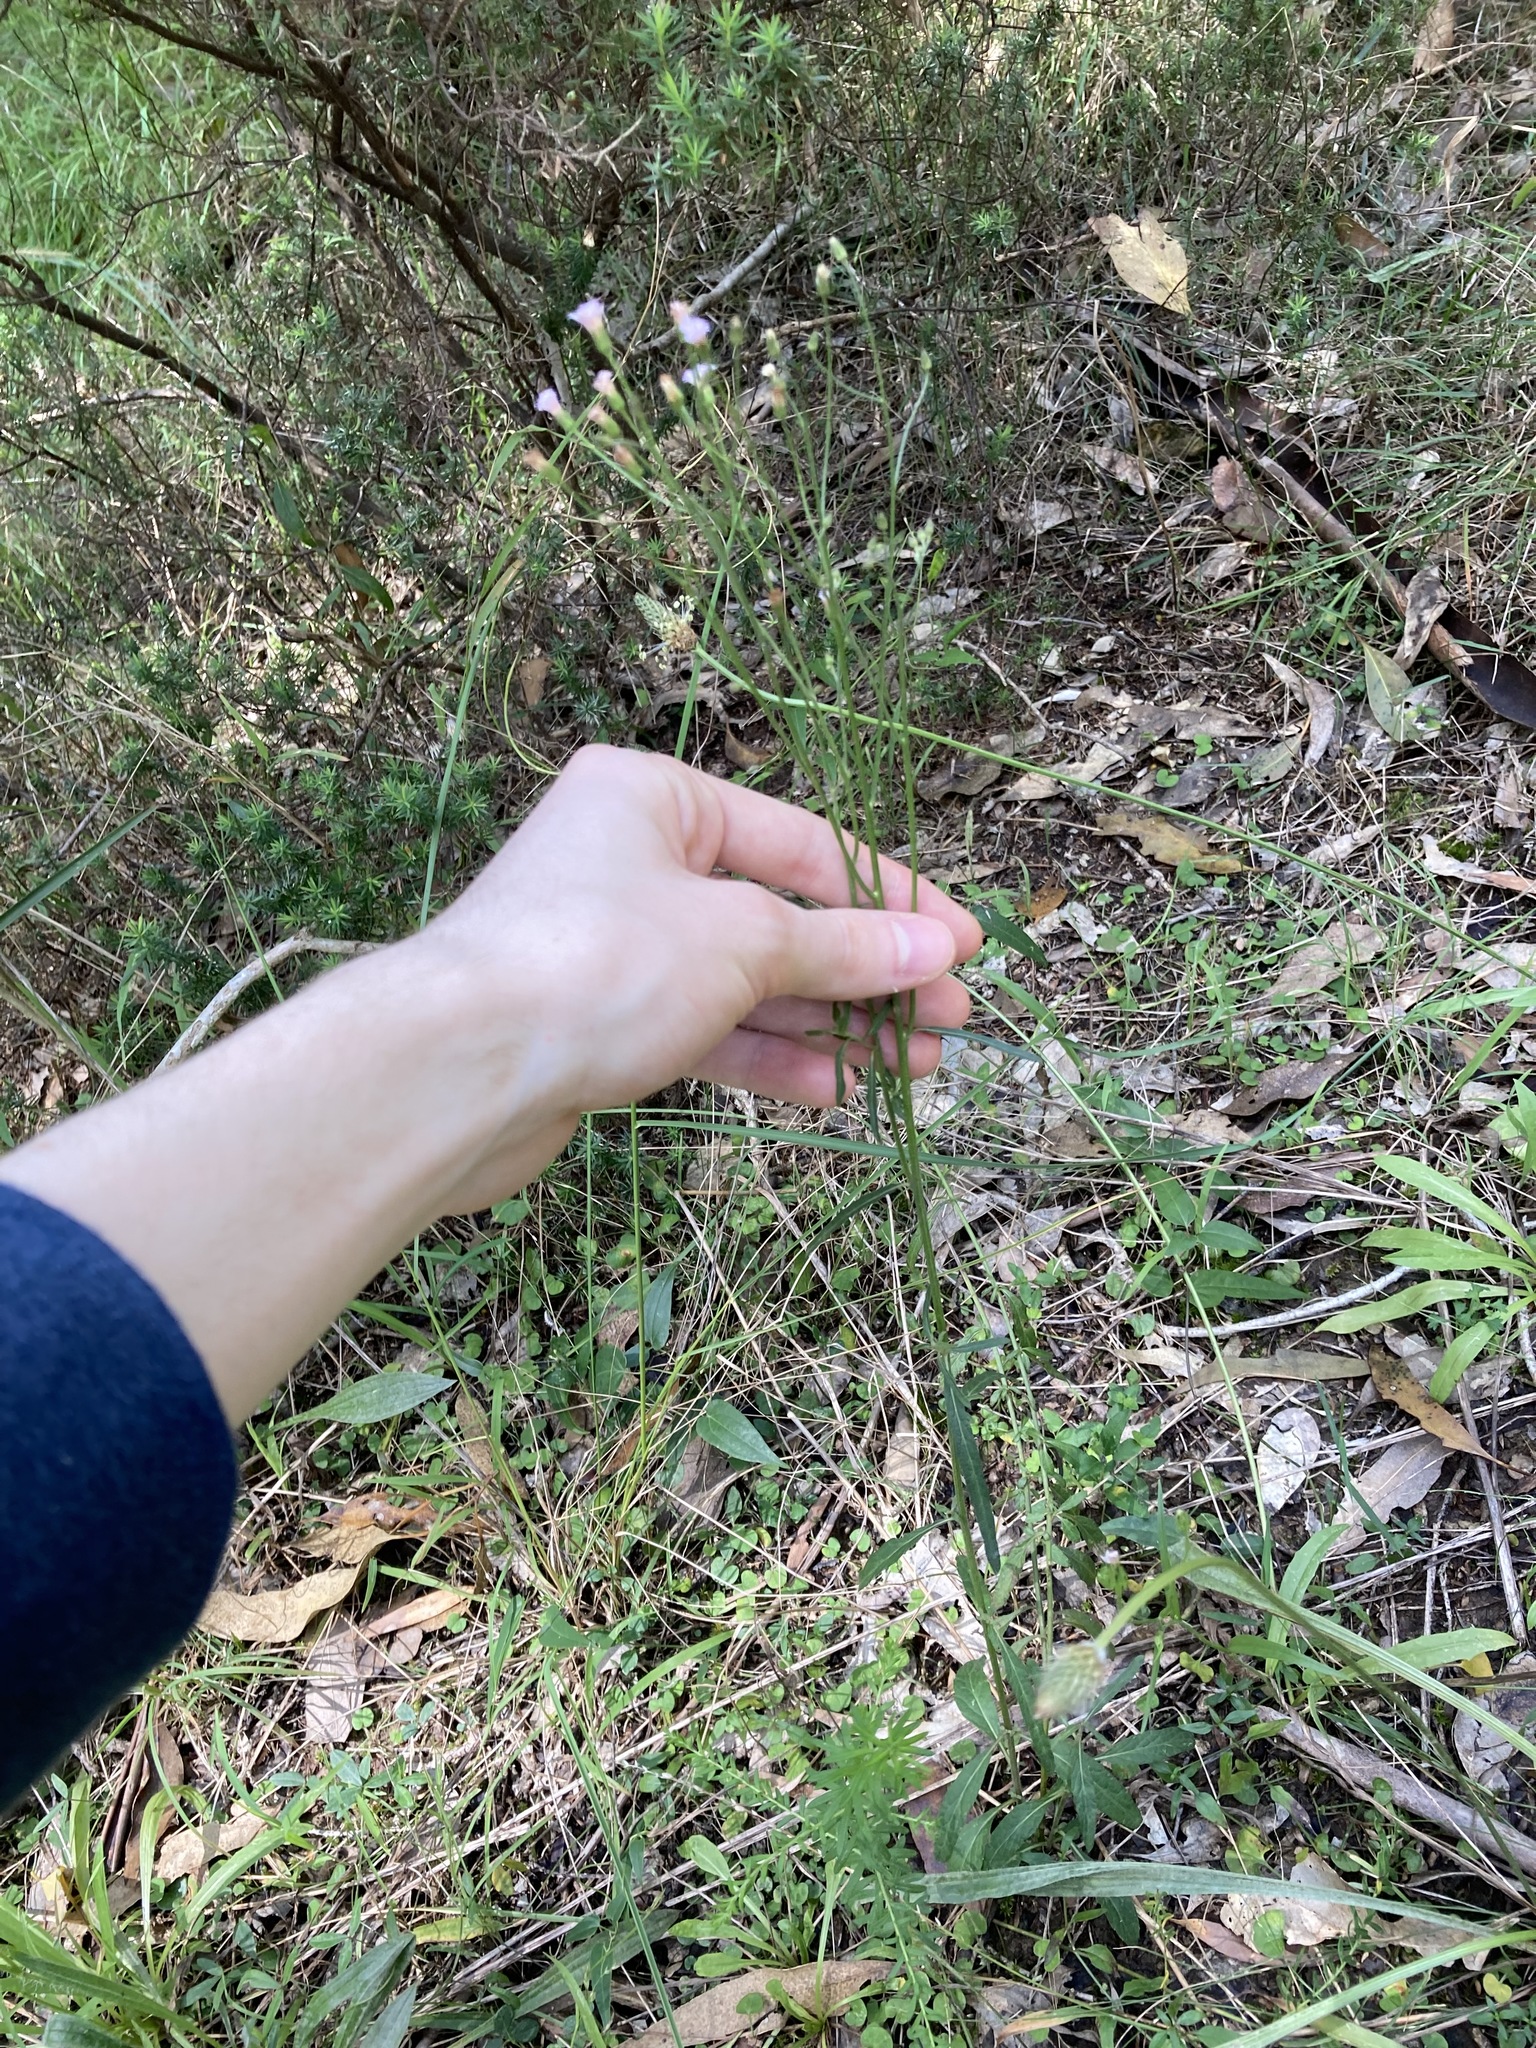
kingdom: Plantae
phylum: Tracheophyta
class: Magnoliopsida
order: Asterales
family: Asteraceae
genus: Cyanthillium
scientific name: Cyanthillium cinereum
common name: Little ironweed
